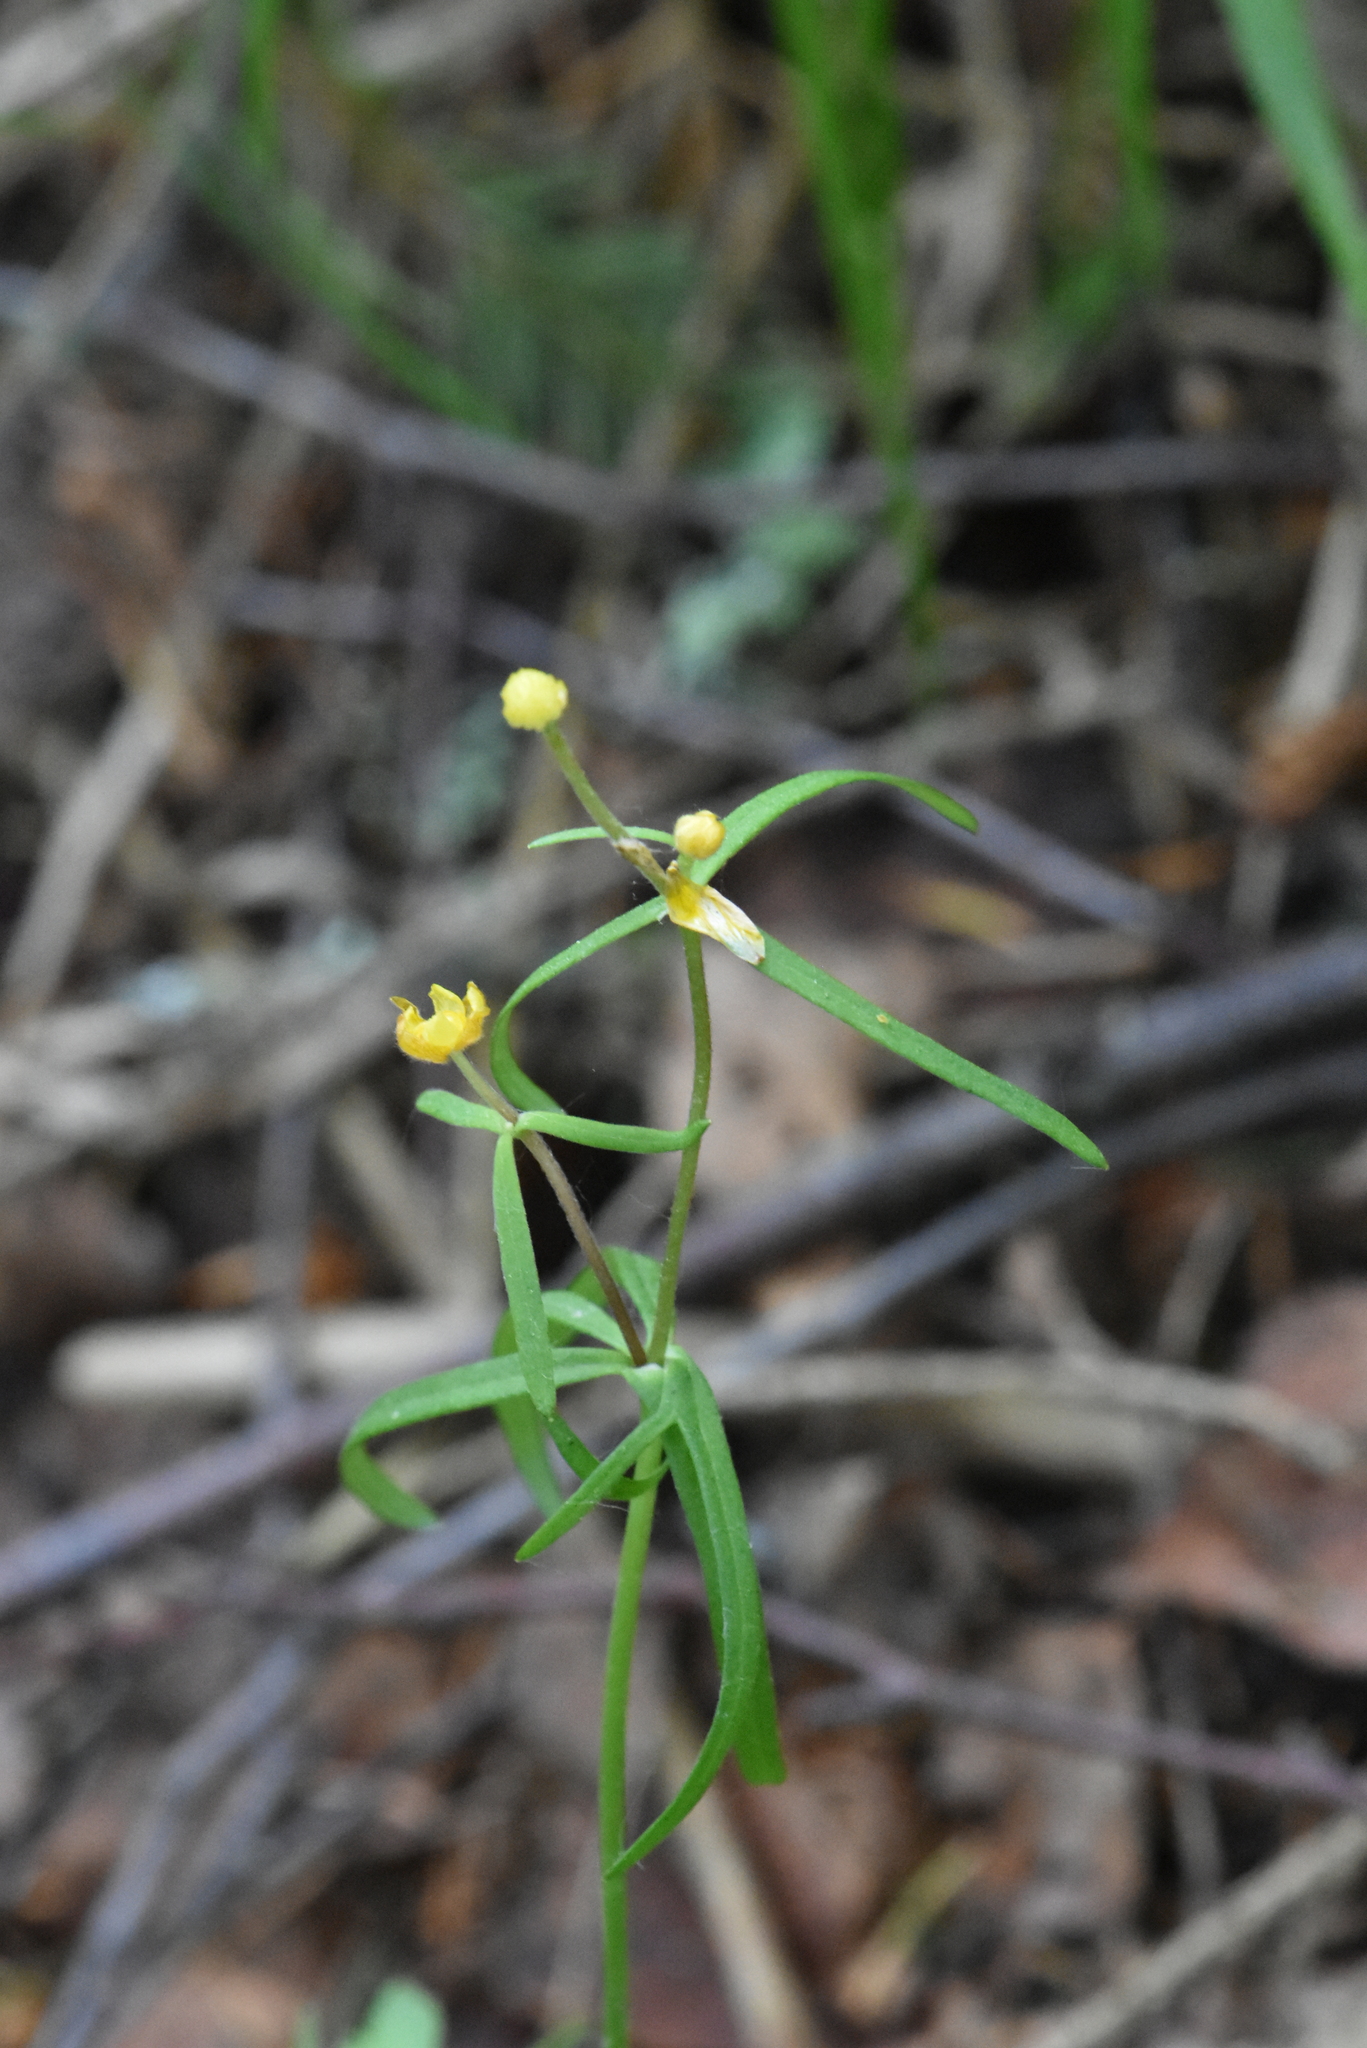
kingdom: Plantae
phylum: Tracheophyta
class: Magnoliopsida
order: Ranunculales
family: Ranunculaceae
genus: Ranunculus
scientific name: Ranunculus auricomus
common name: Goldilocks buttercup
